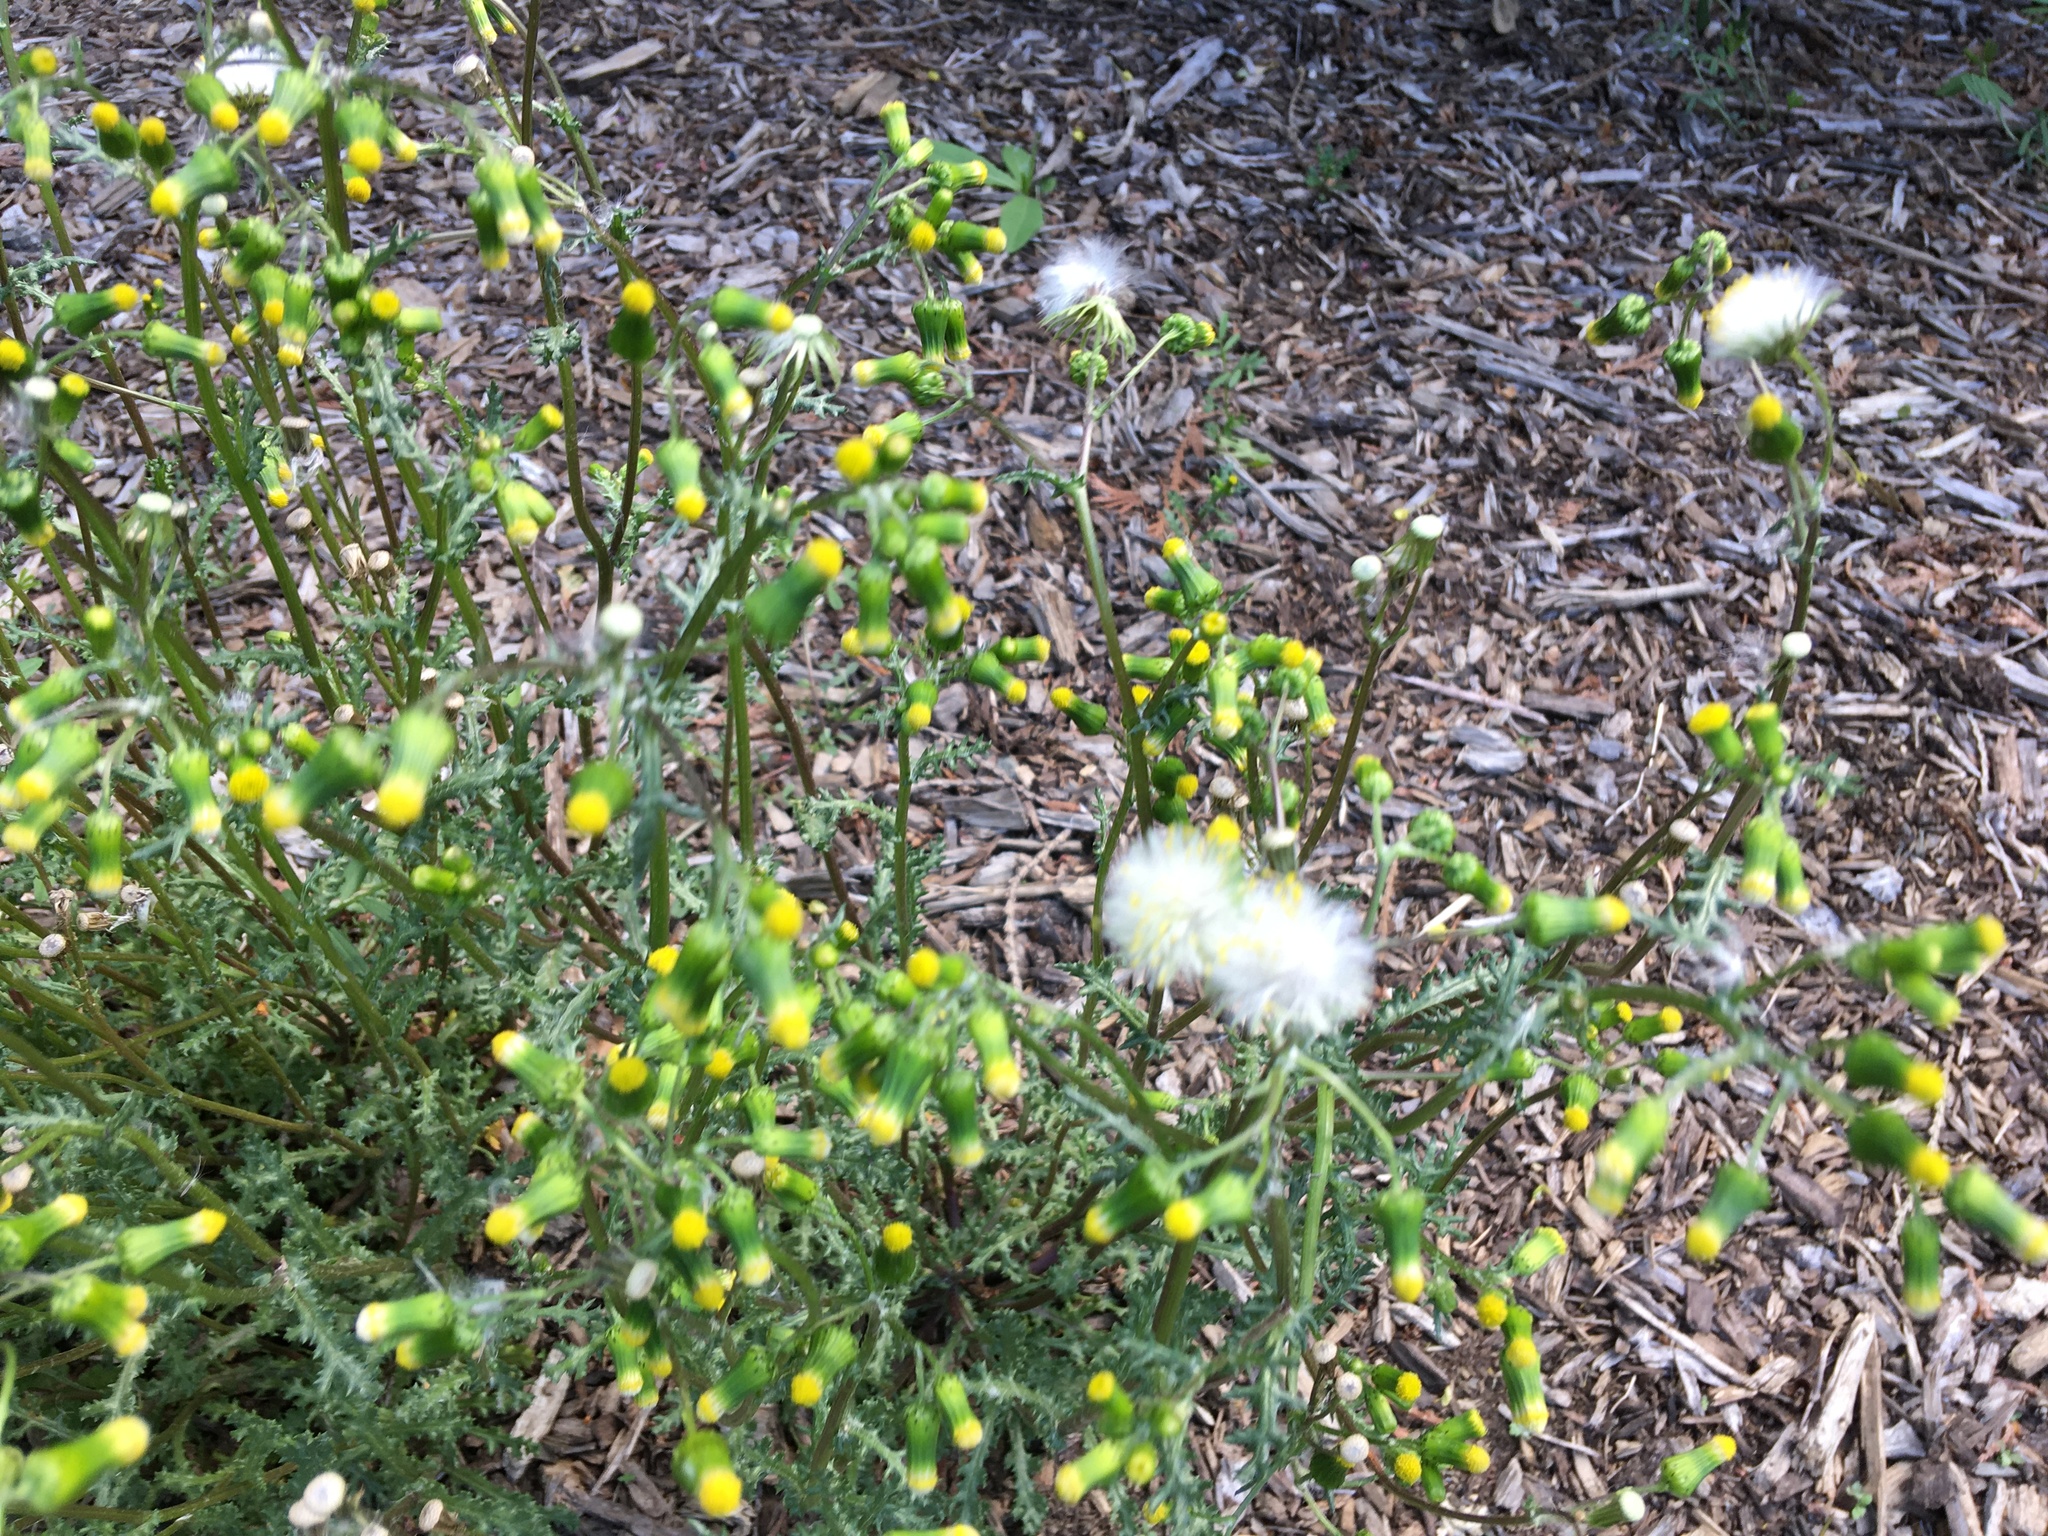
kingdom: Plantae
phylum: Tracheophyta
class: Magnoliopsida
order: Asterales
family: Asteraceae
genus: Senecio
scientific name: Senecio vulgaris
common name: Old-man-in-the-spring
